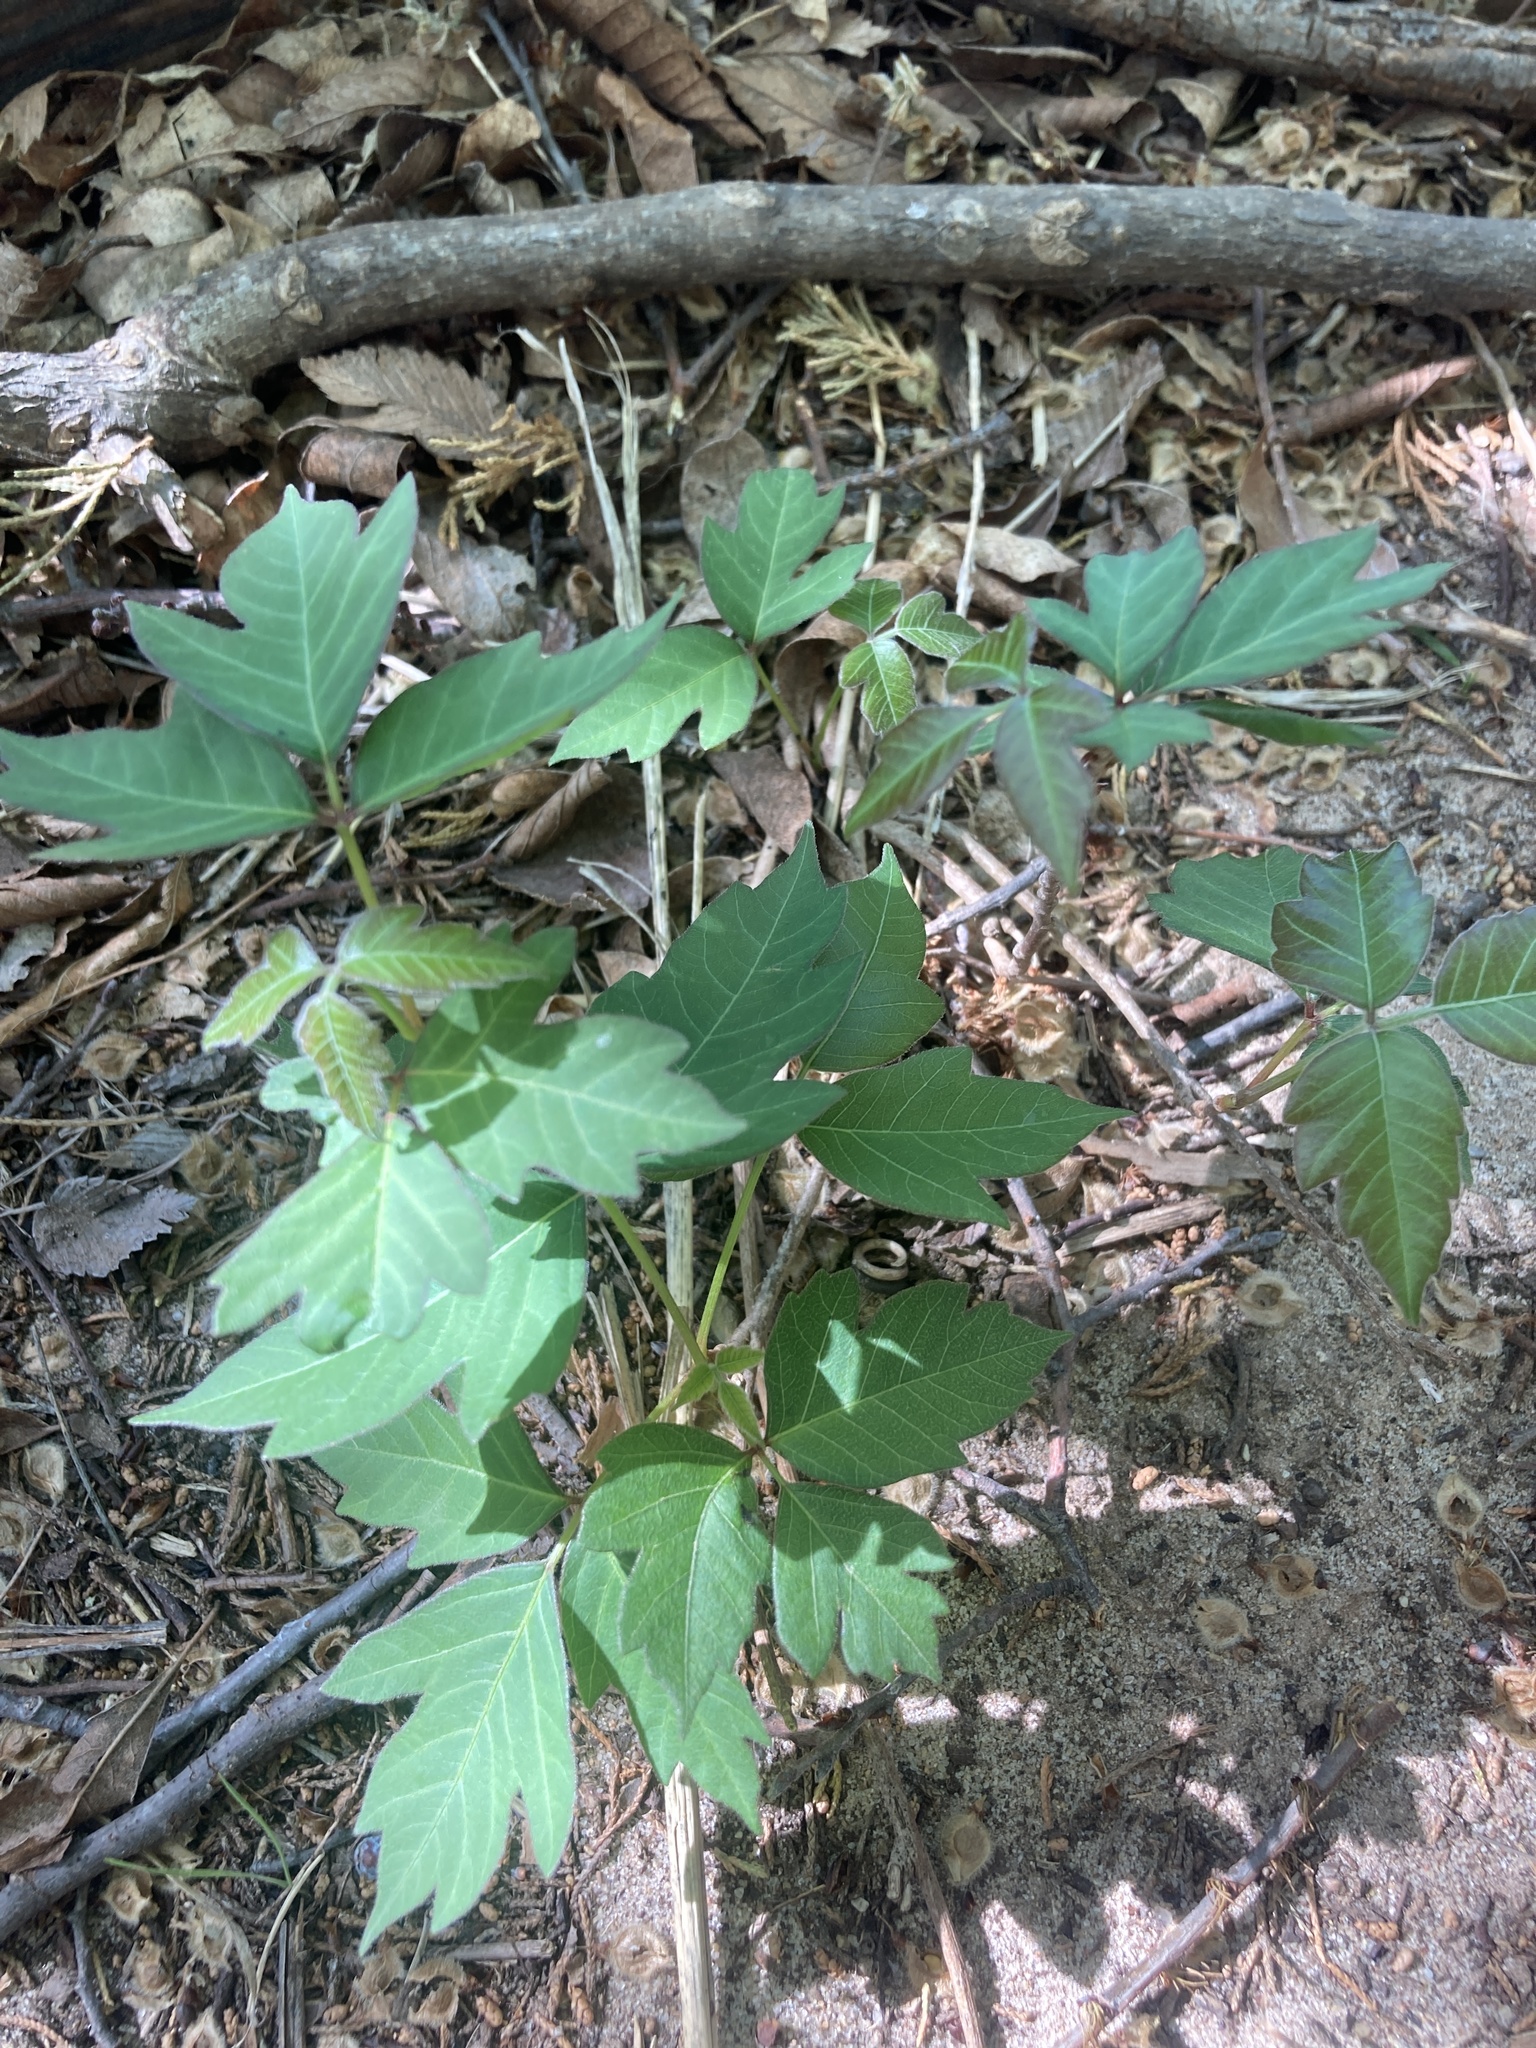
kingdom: Plantae
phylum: Tracheophyta
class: Magnoliopsida
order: Sapindales
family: Anacardiaceae
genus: Toxicodendron
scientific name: Toxicodendron radicans
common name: Poison ivy
